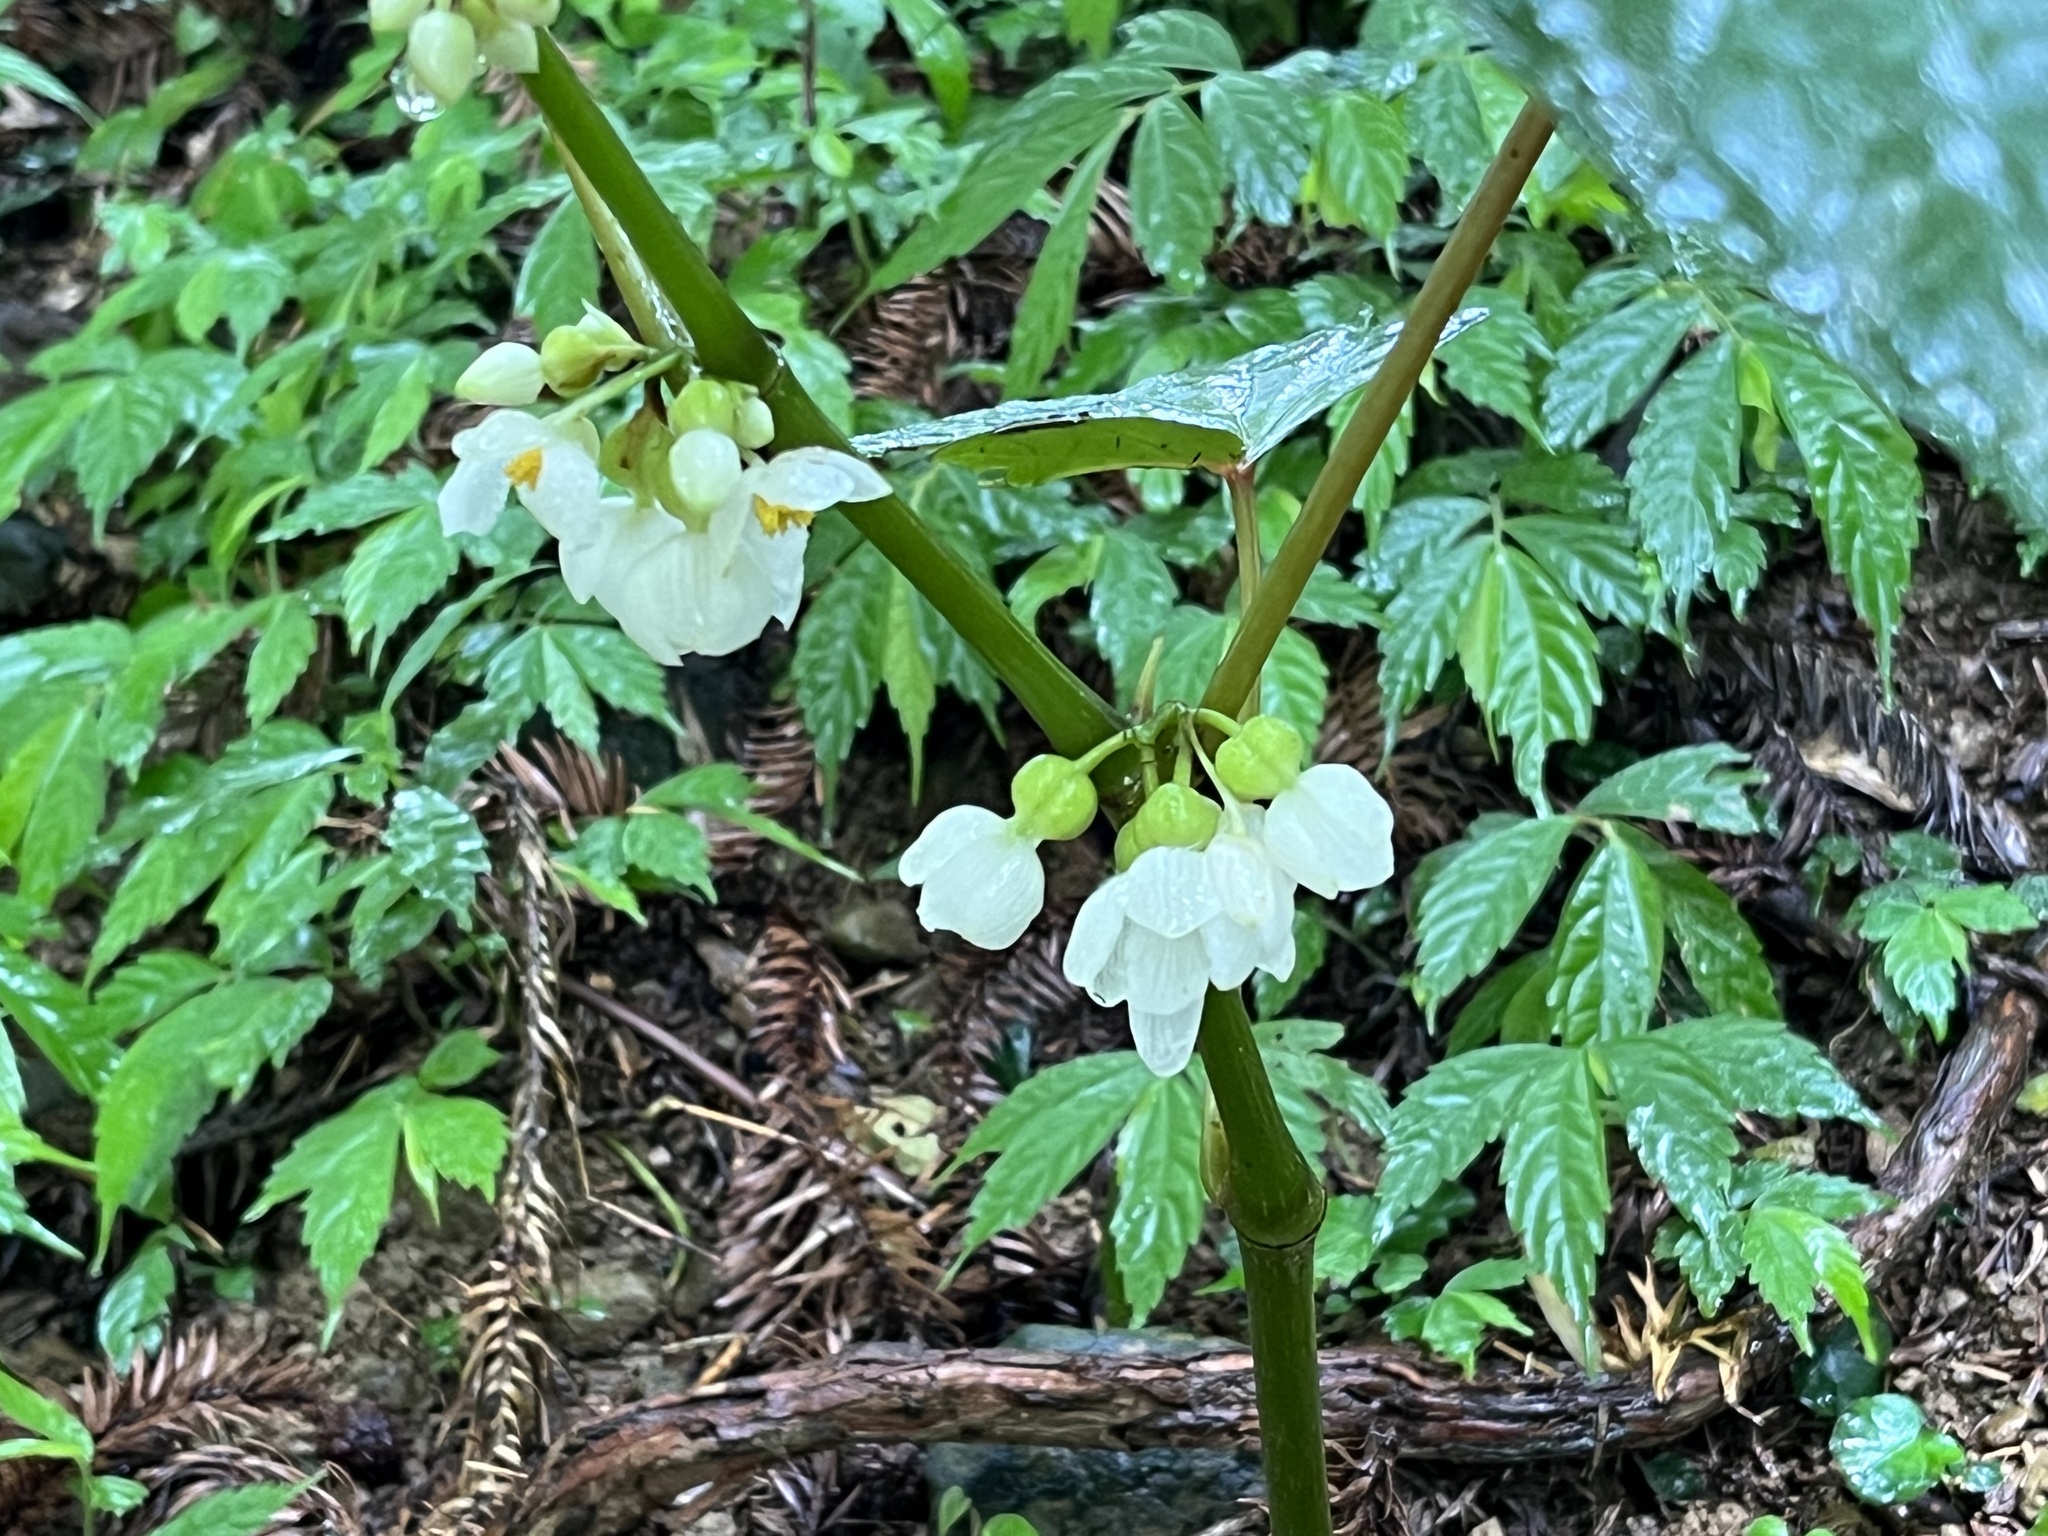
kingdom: Plantae
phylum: Tracheophyta
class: Magnoliopsida
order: Cucurbitales
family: Begoniaceae
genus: Begonia
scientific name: Begonia longifolia
